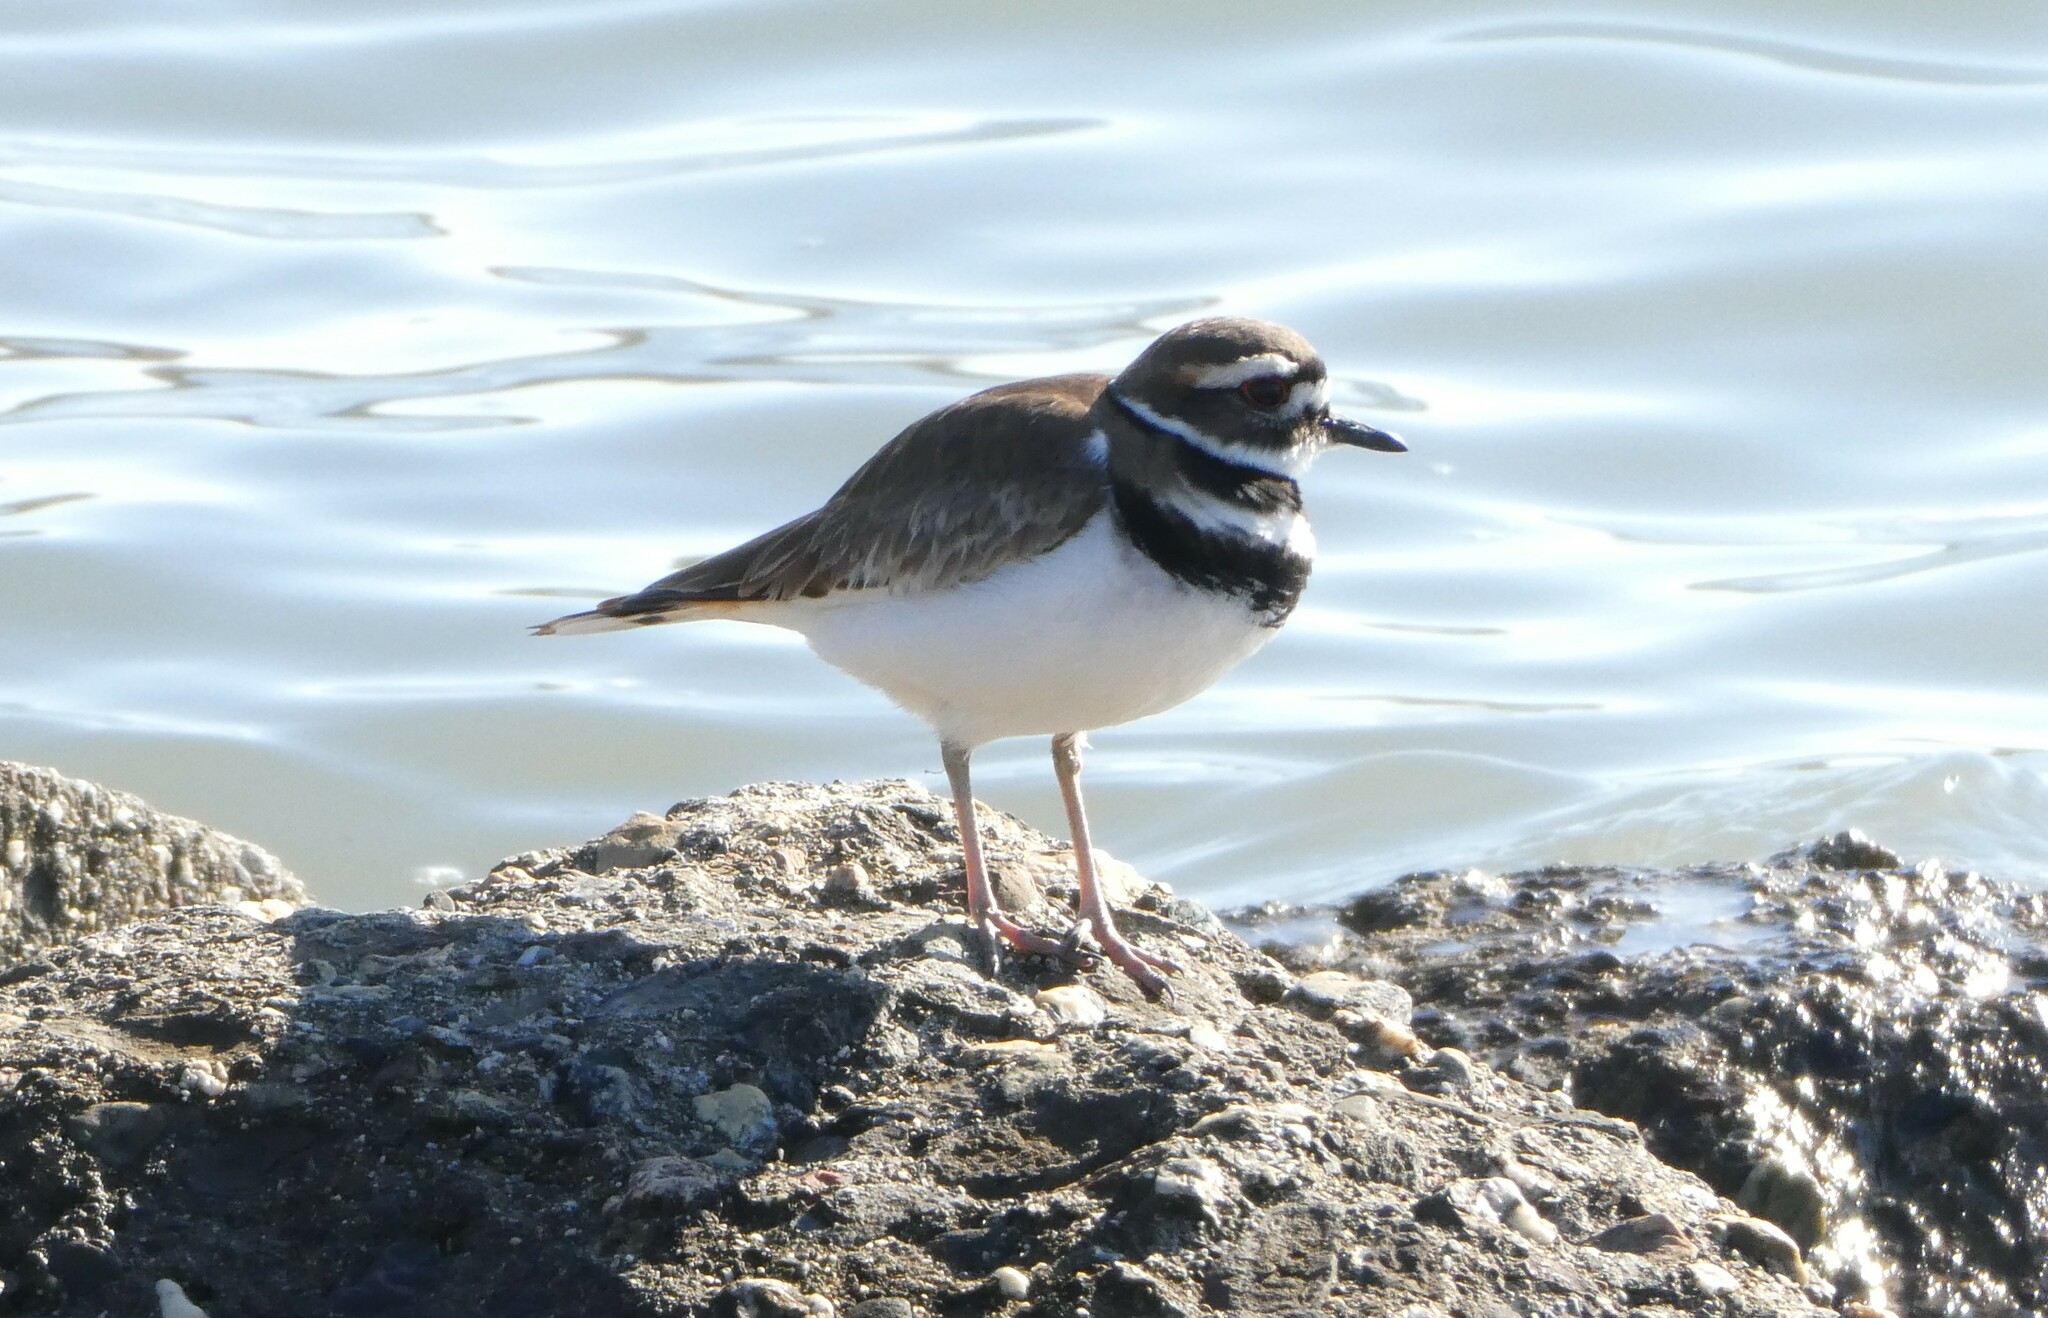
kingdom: Animalia
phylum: Chordata
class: Aves
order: Charadriiformes
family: Charadriidae
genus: Charadrius
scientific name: Charadrius vociferus
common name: Killdeer
